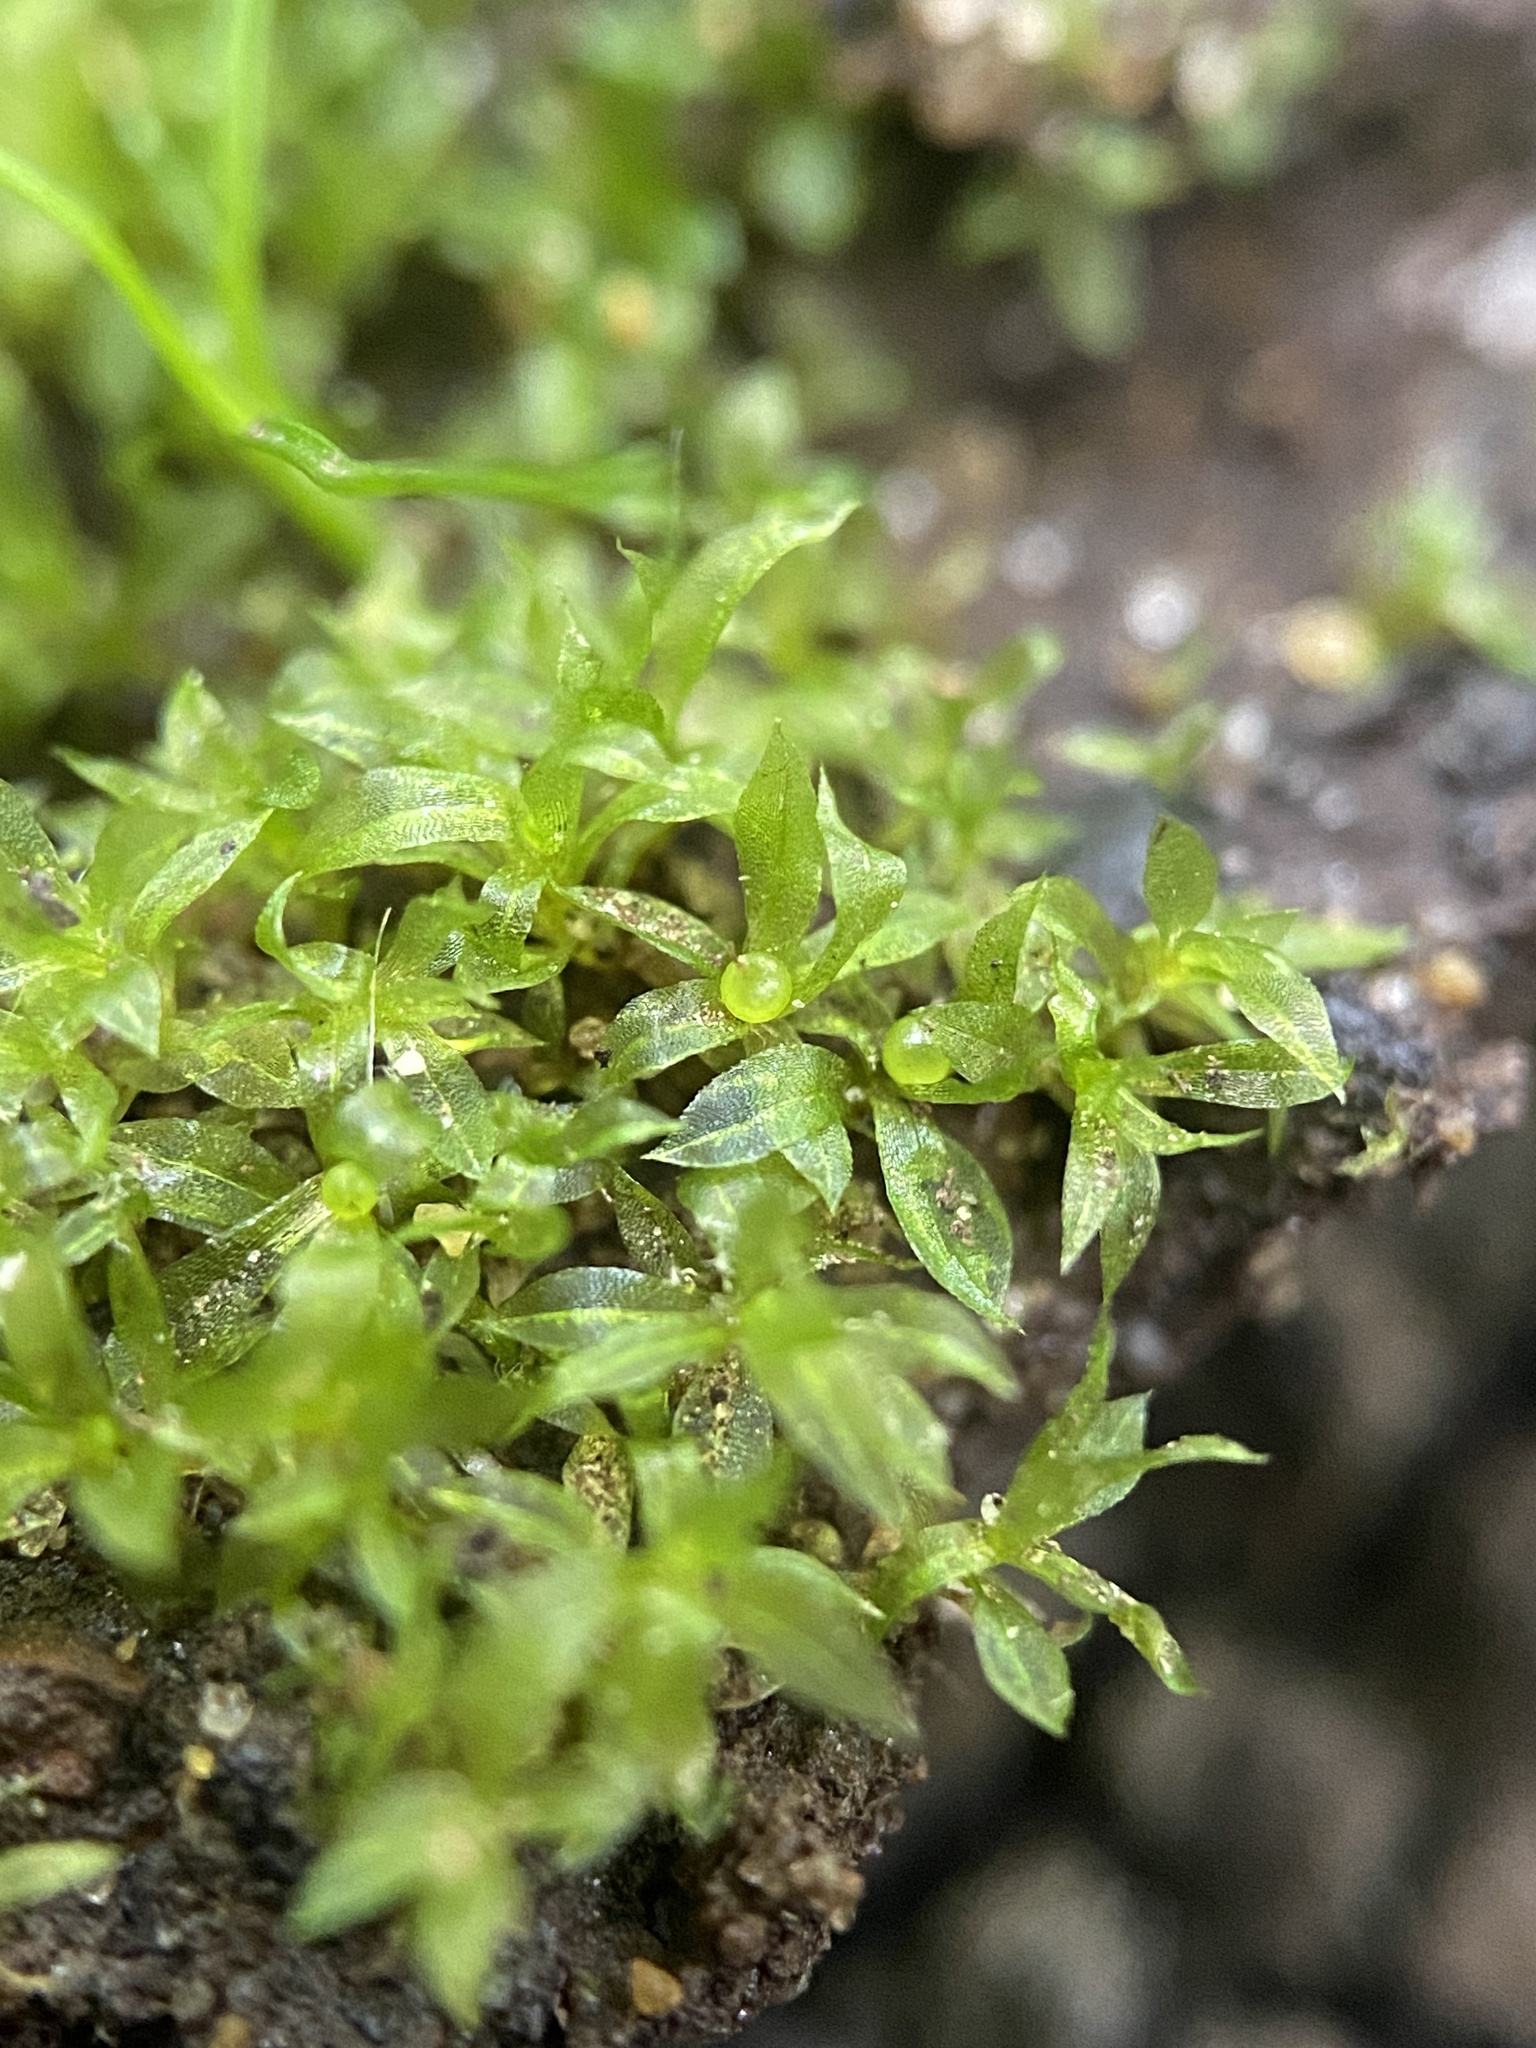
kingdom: Plantae
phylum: Bryophyta
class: Bryopsida
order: Funariales
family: Funariaceae
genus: Physcomitrium
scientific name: Physcomitrium serratum
